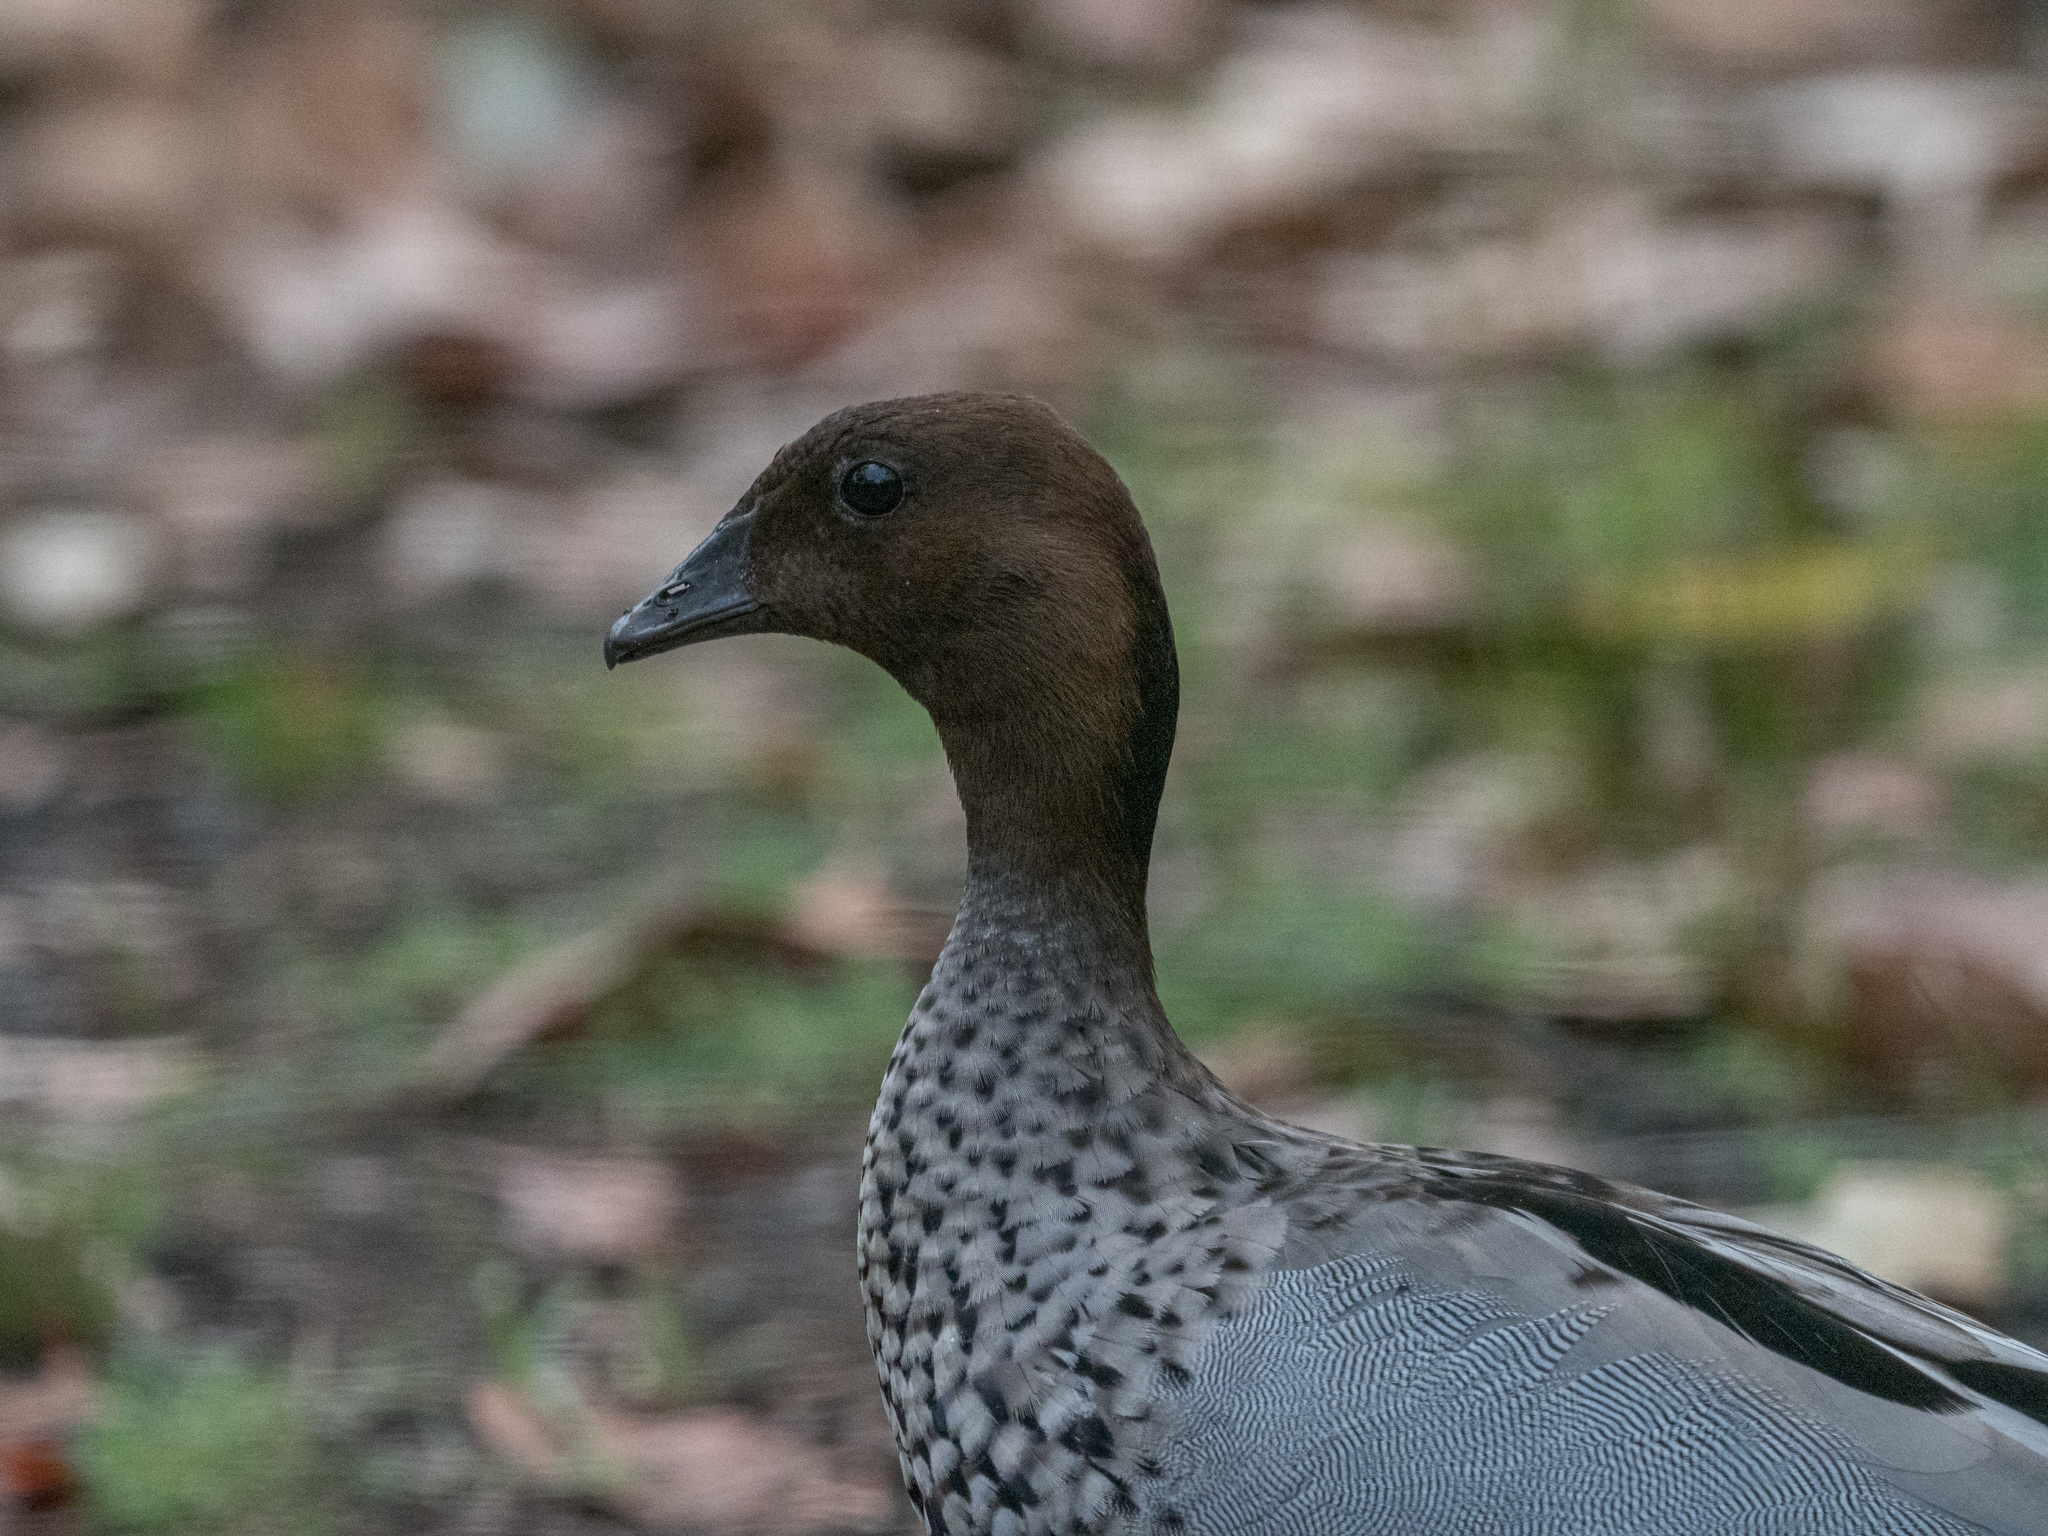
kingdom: Animalia
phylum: Chordata
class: Aves
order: Anseriformes
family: Anatidae
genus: Chenonetta
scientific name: Chenonetta jubata
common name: Maned duck
